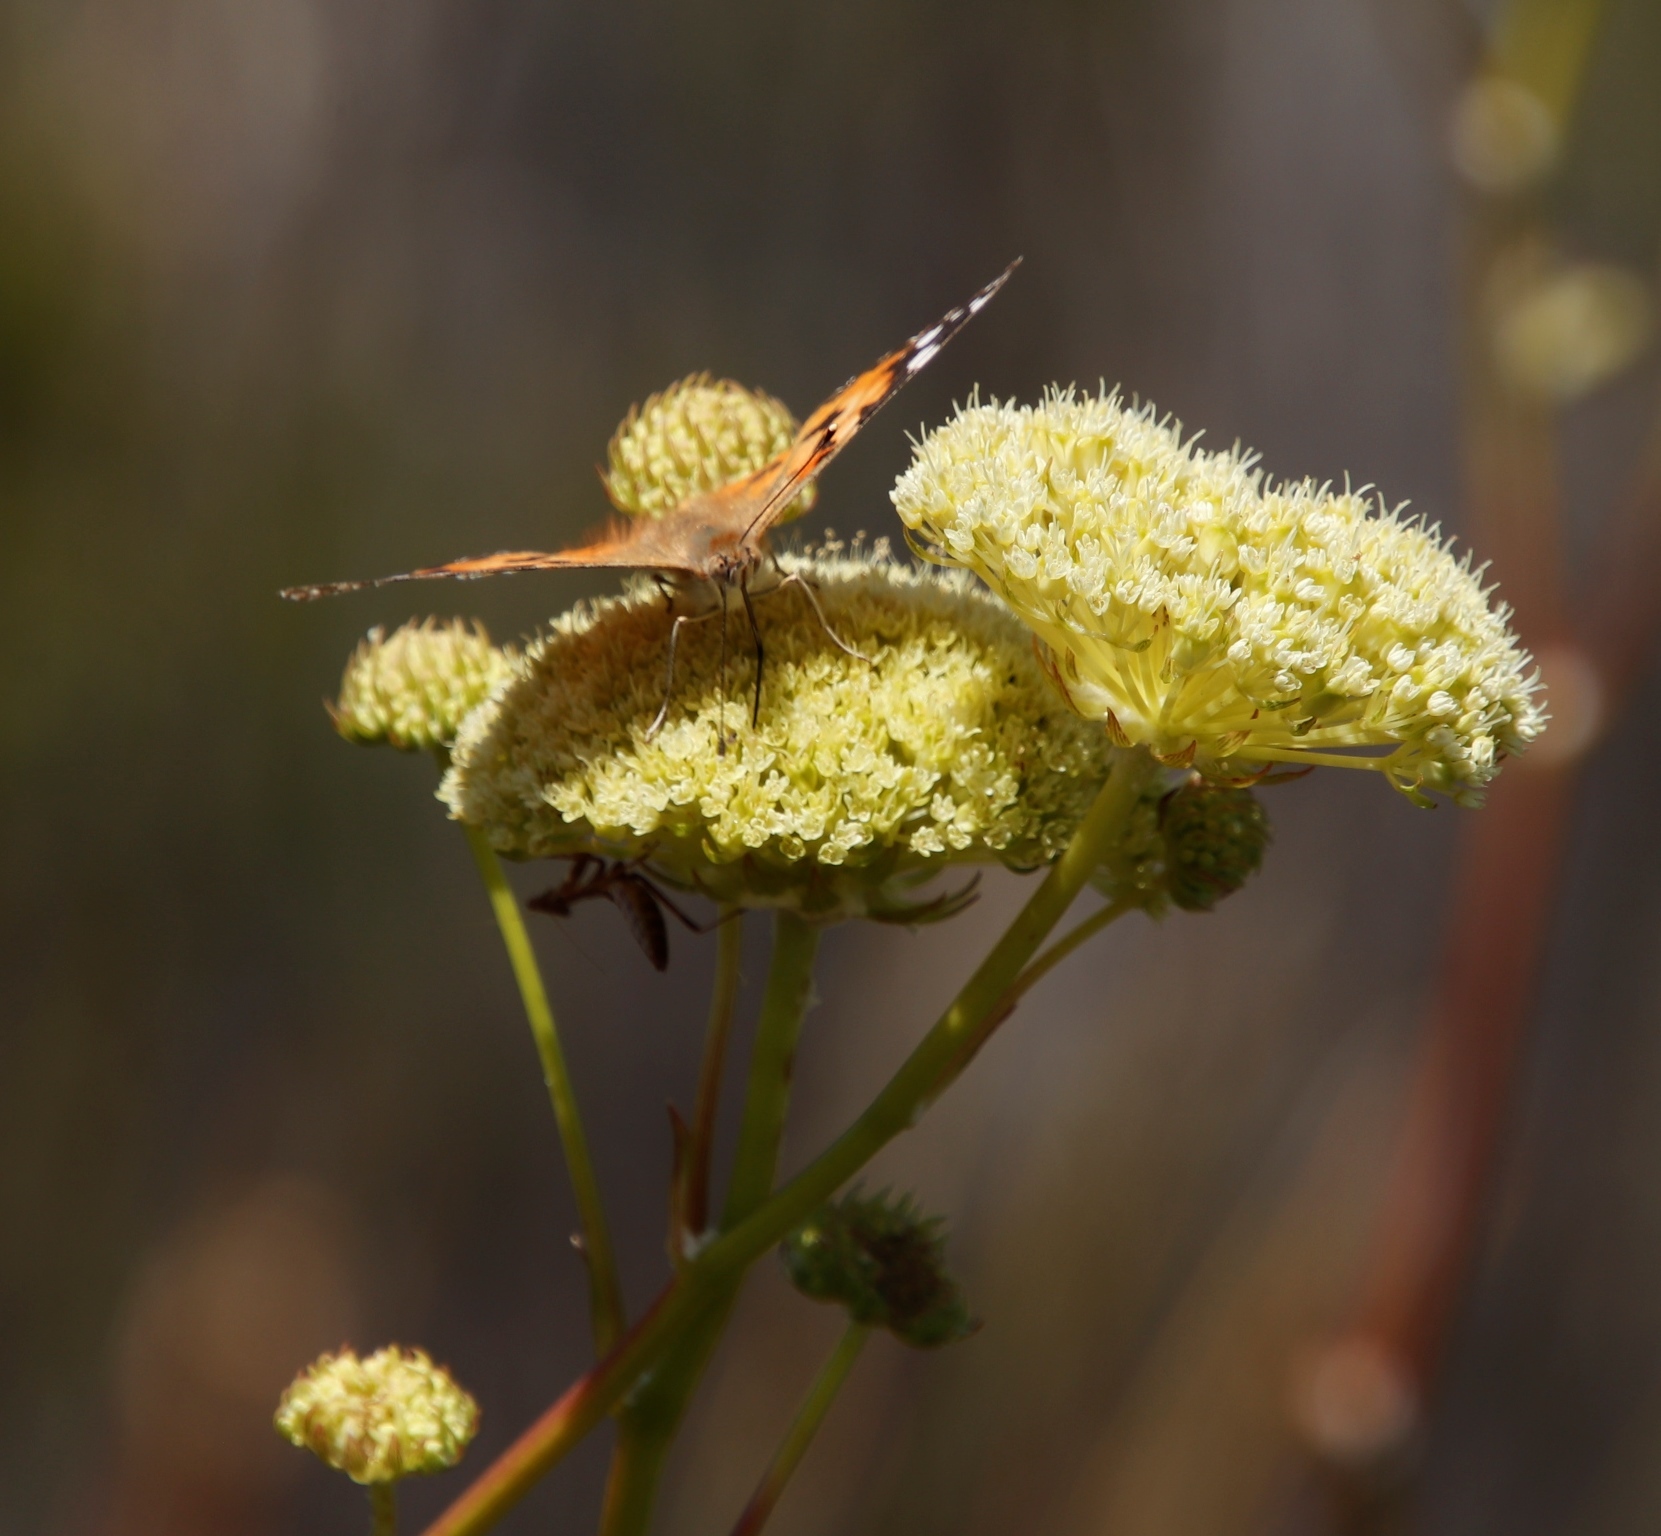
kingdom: Animalia
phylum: Arthropoda
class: Insecta
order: Lepidoptera
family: Nymphalidae
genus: Vanessa
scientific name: Vanessa cardui
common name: Painted lady
